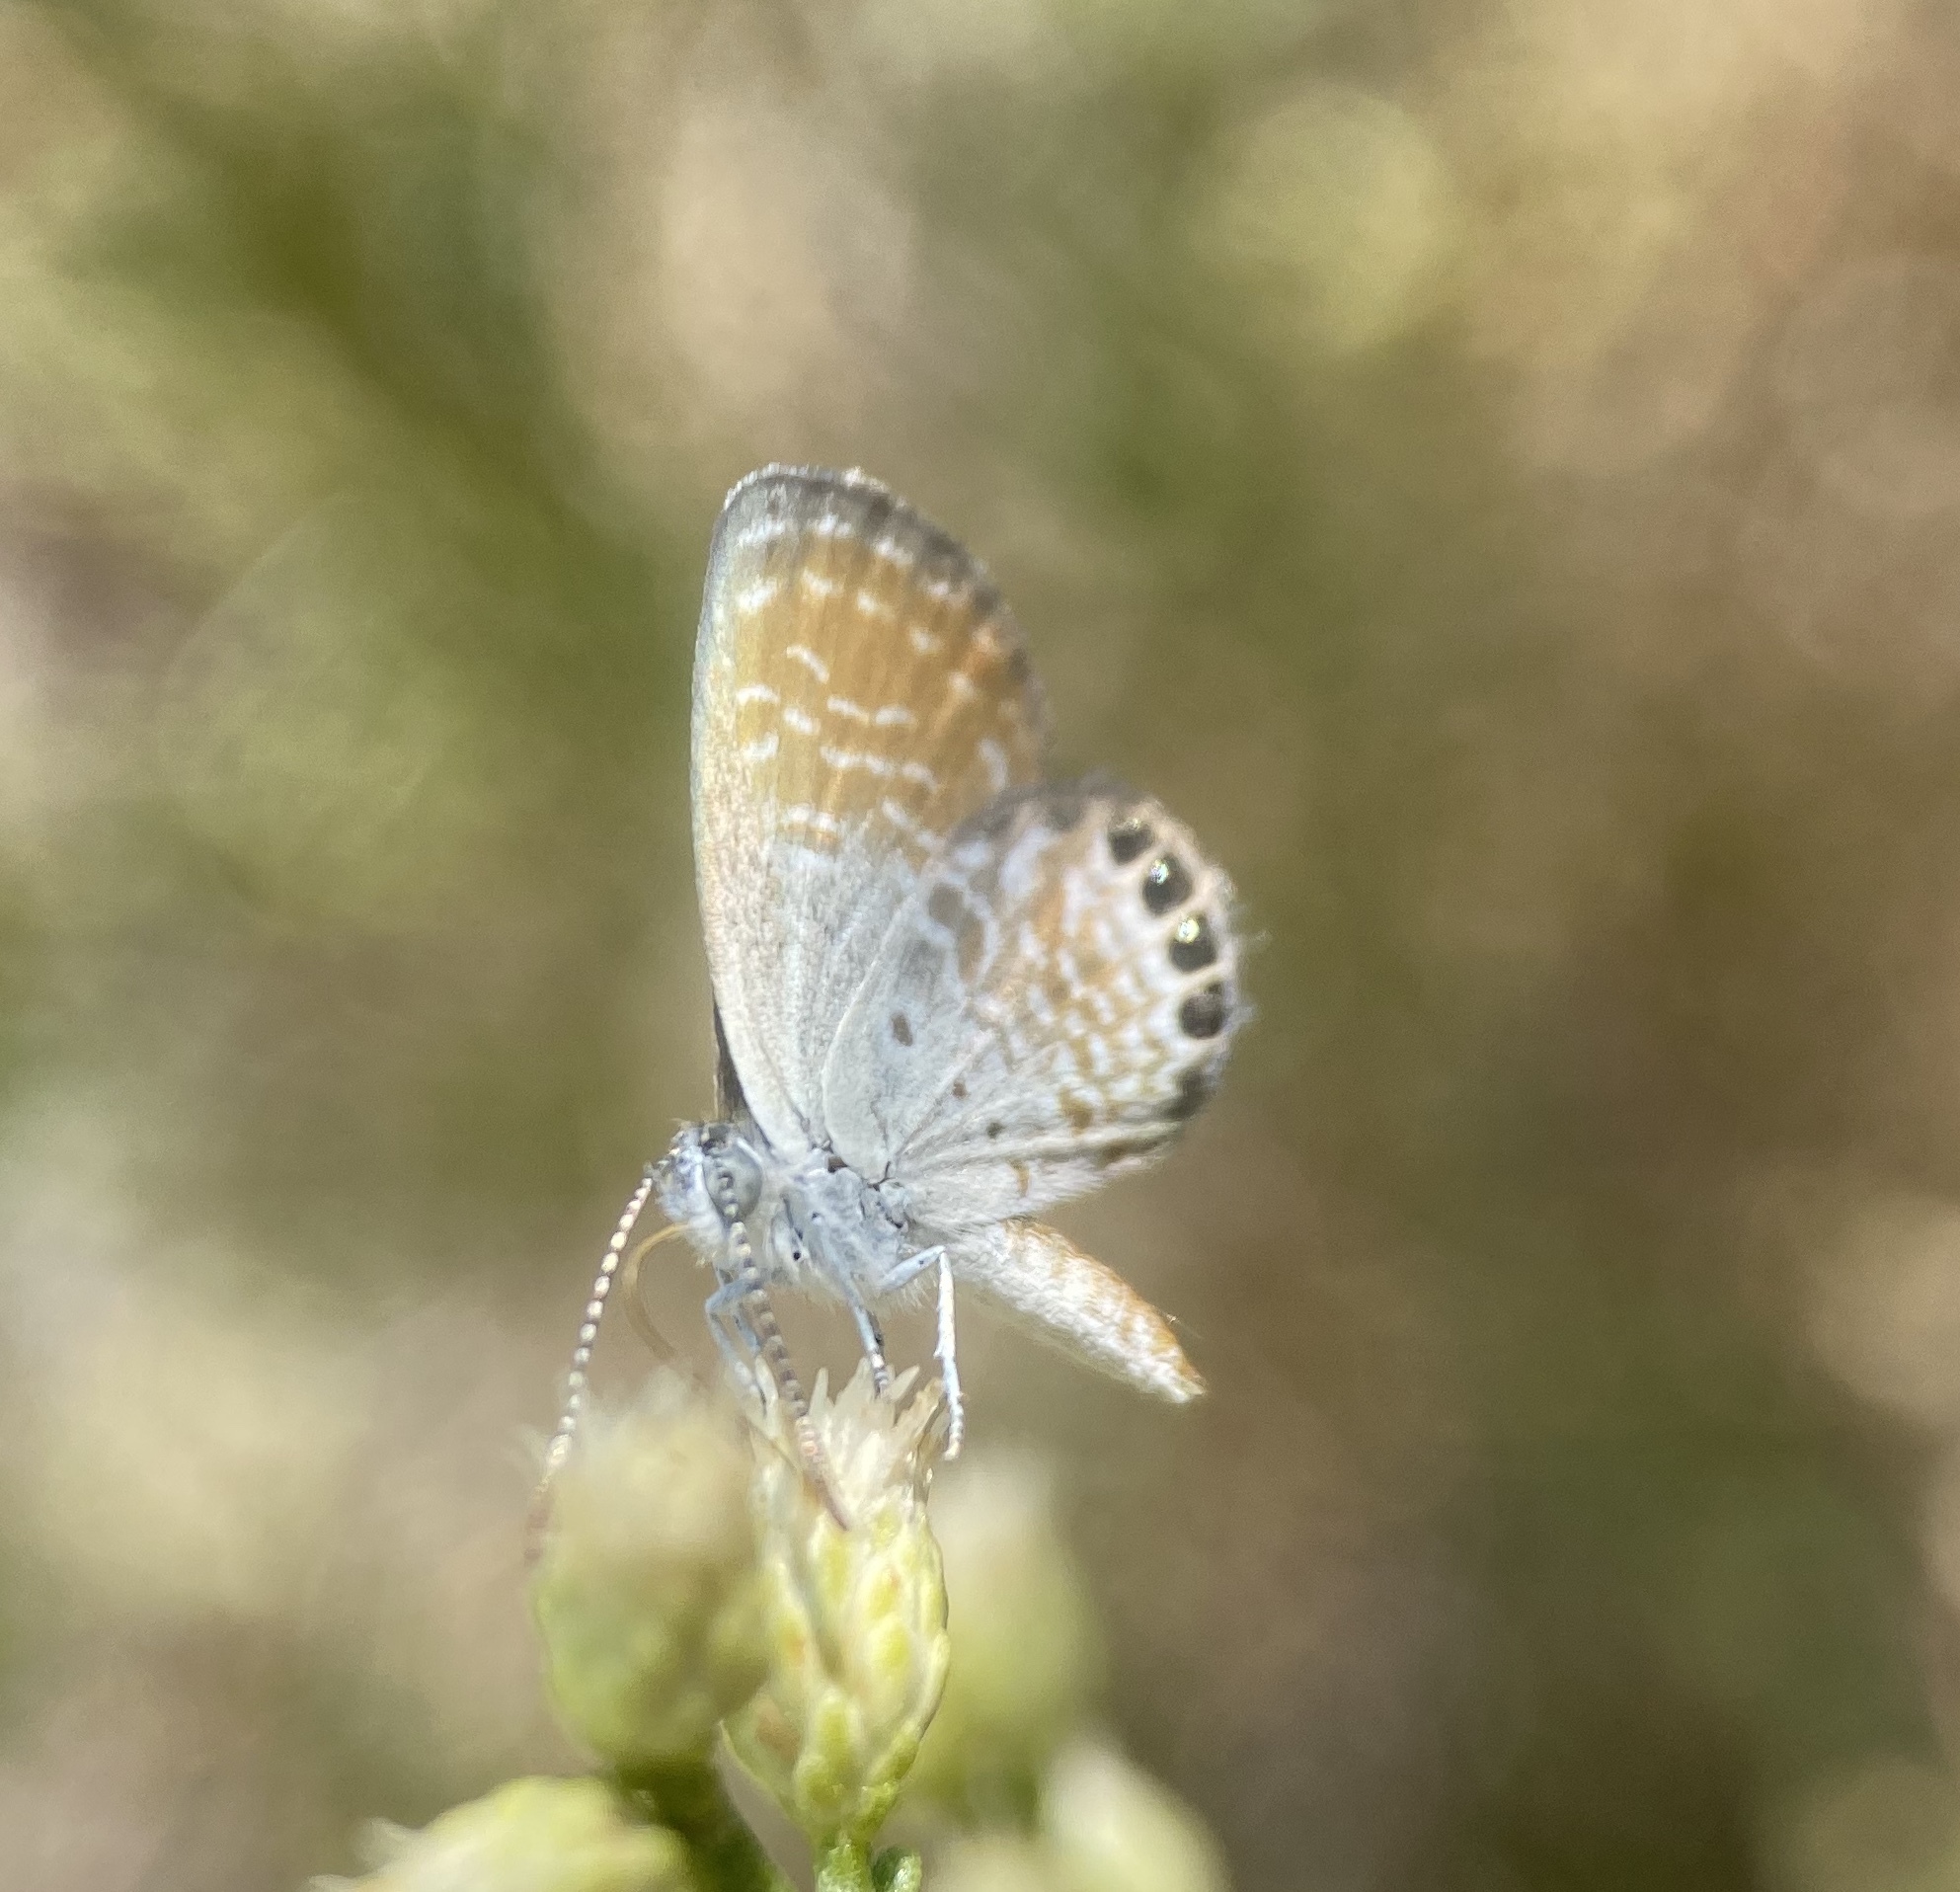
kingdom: Animalia
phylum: Arthropoda
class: Insecta
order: Lepidoptera
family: Lycaenidae
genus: Brephidium
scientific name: Brephidium exilis
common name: Pygmy blue
